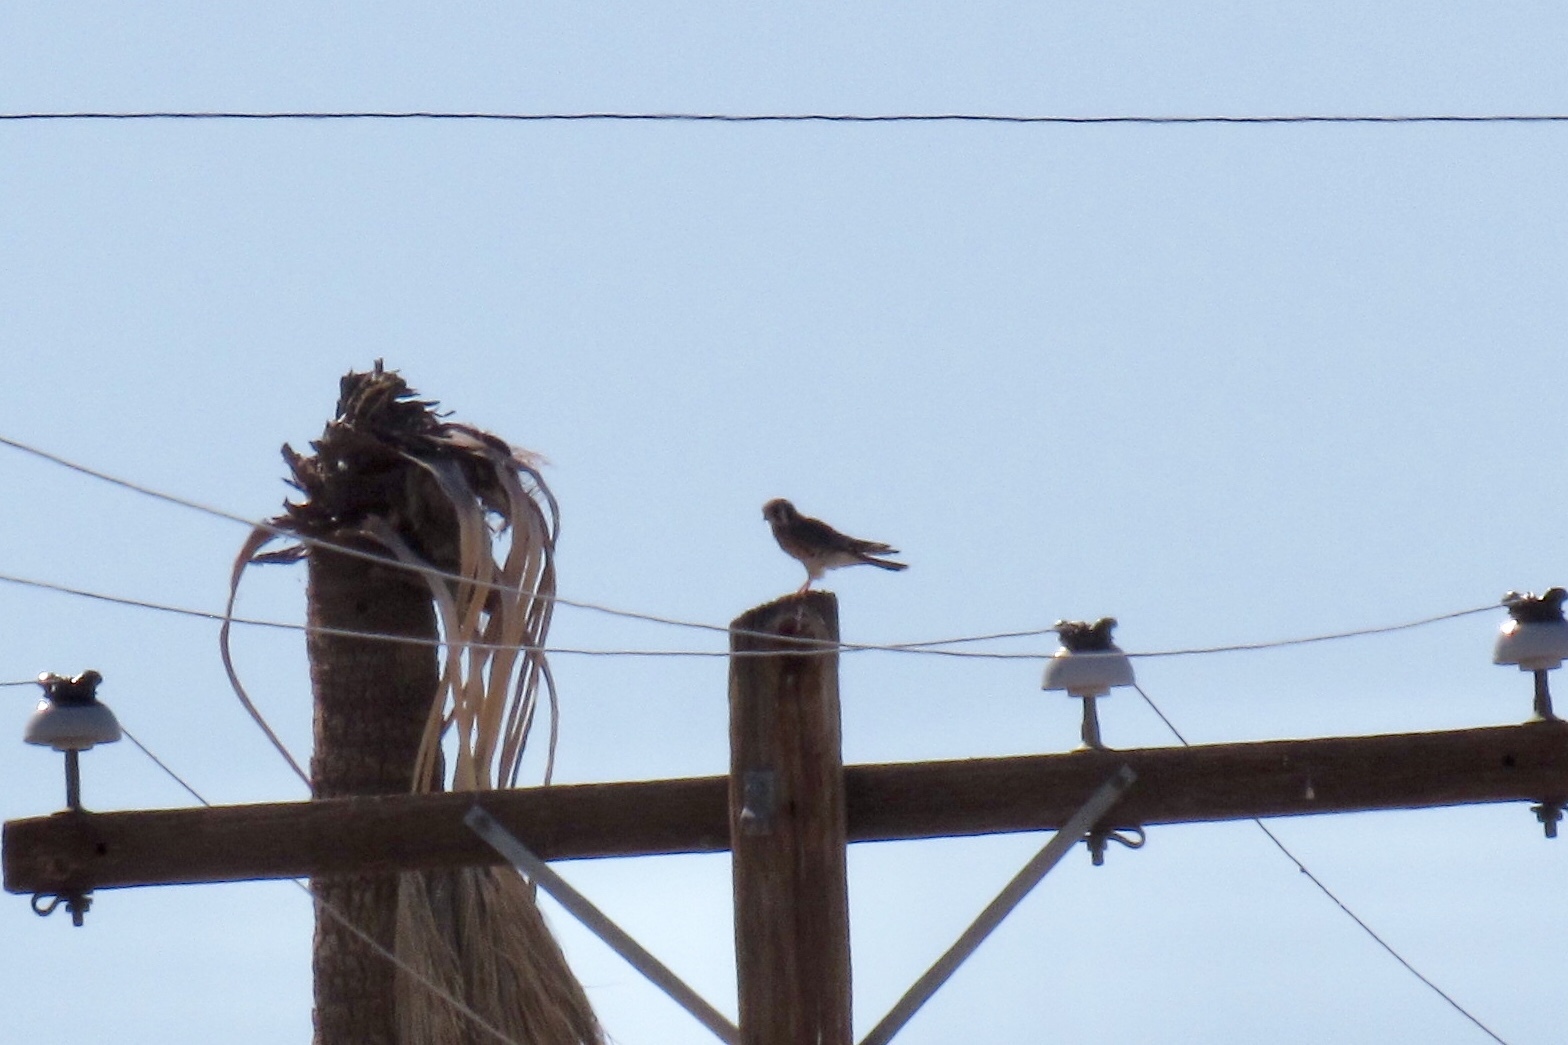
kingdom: Animalia
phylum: Chordata
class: Aves
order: Falconiformes
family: Falconidae
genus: Falco
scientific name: Falco sparverius
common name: American kestrel
